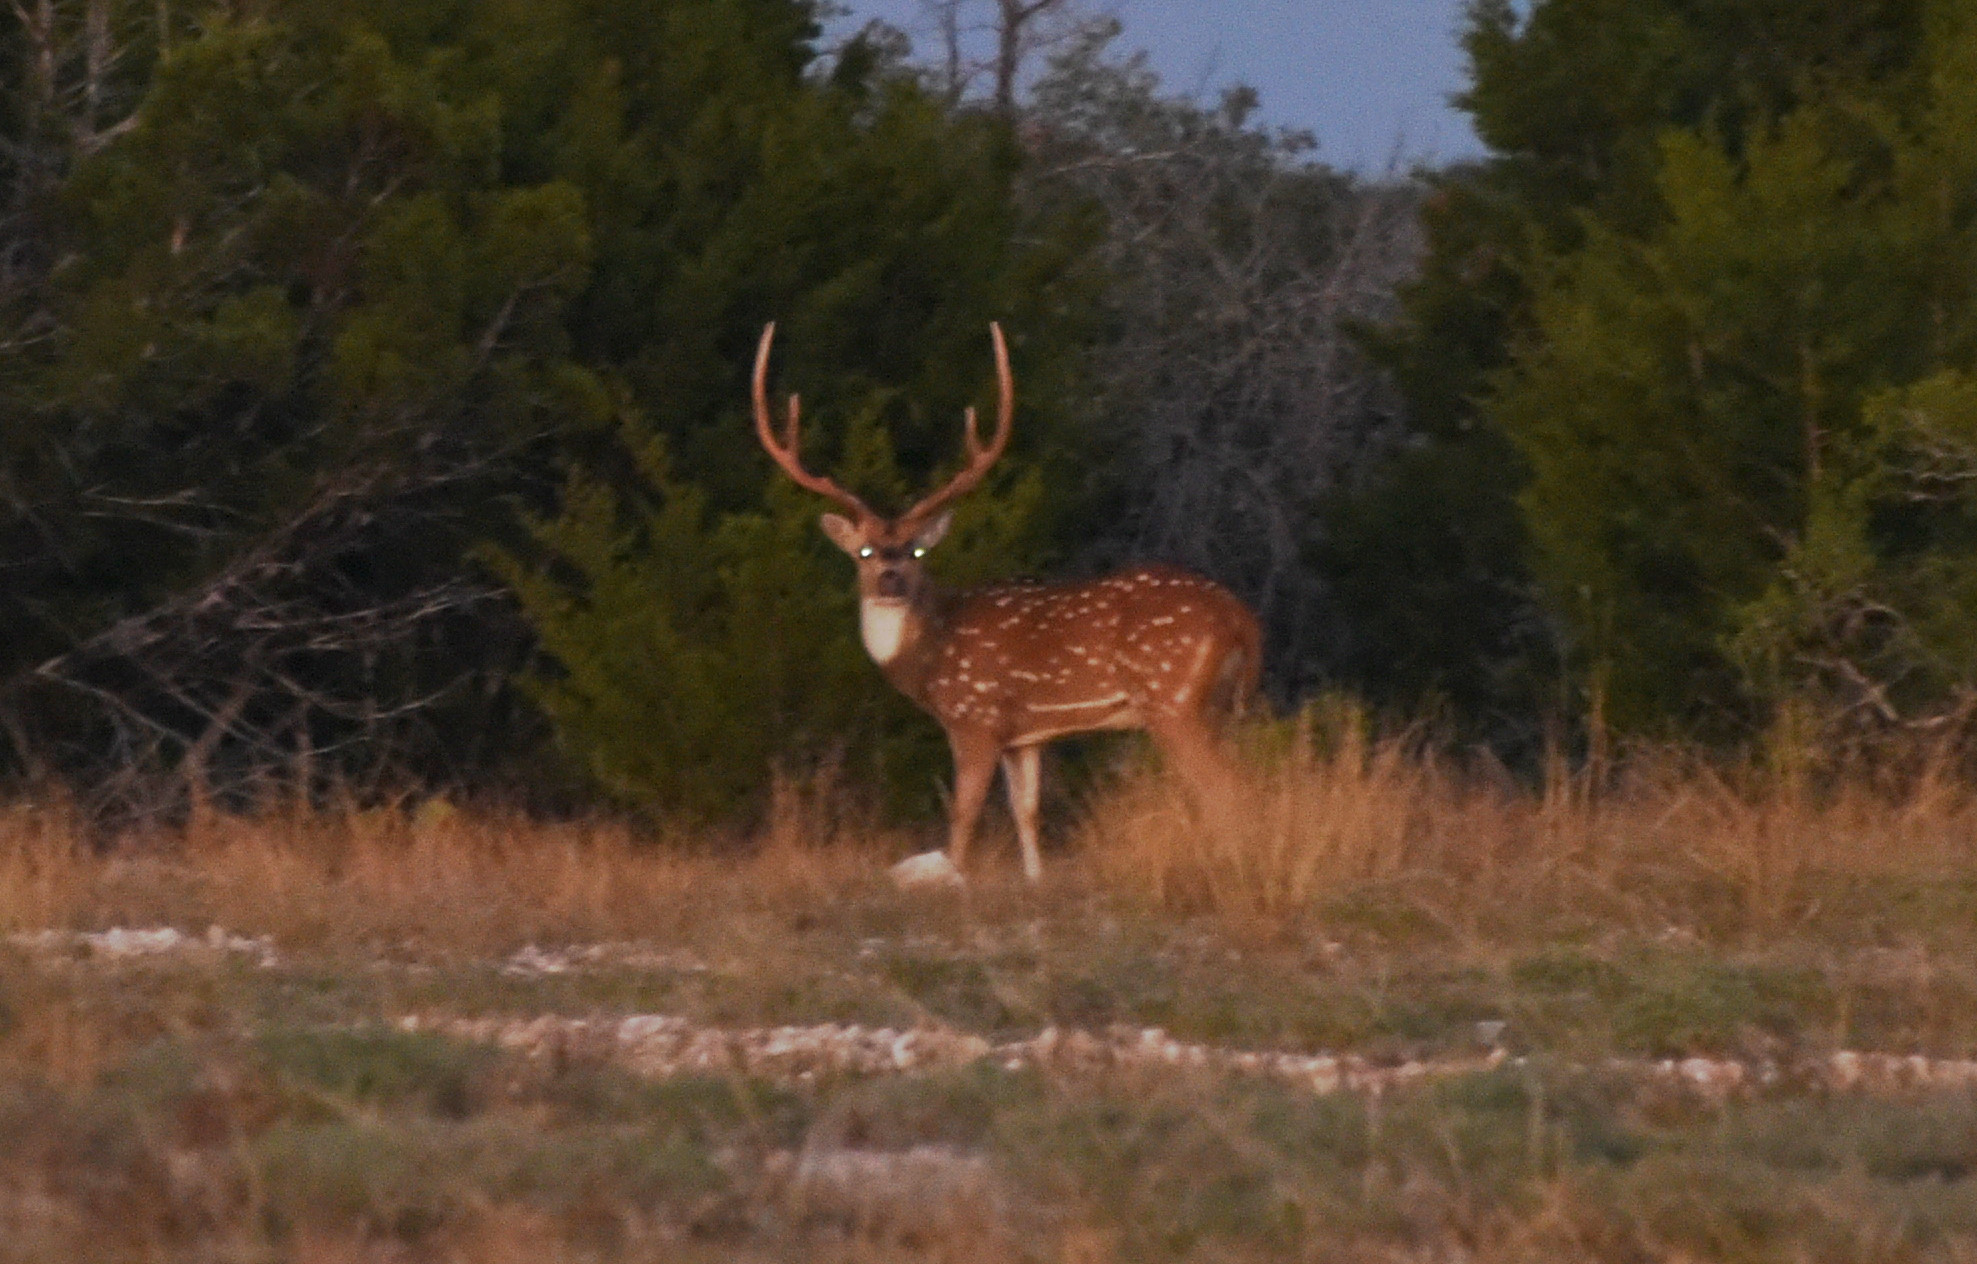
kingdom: Animalia
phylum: Chordata
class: Mammalia
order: Artiodactyla
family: Cervidae
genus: Axis
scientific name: Axis axis
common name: Chital
